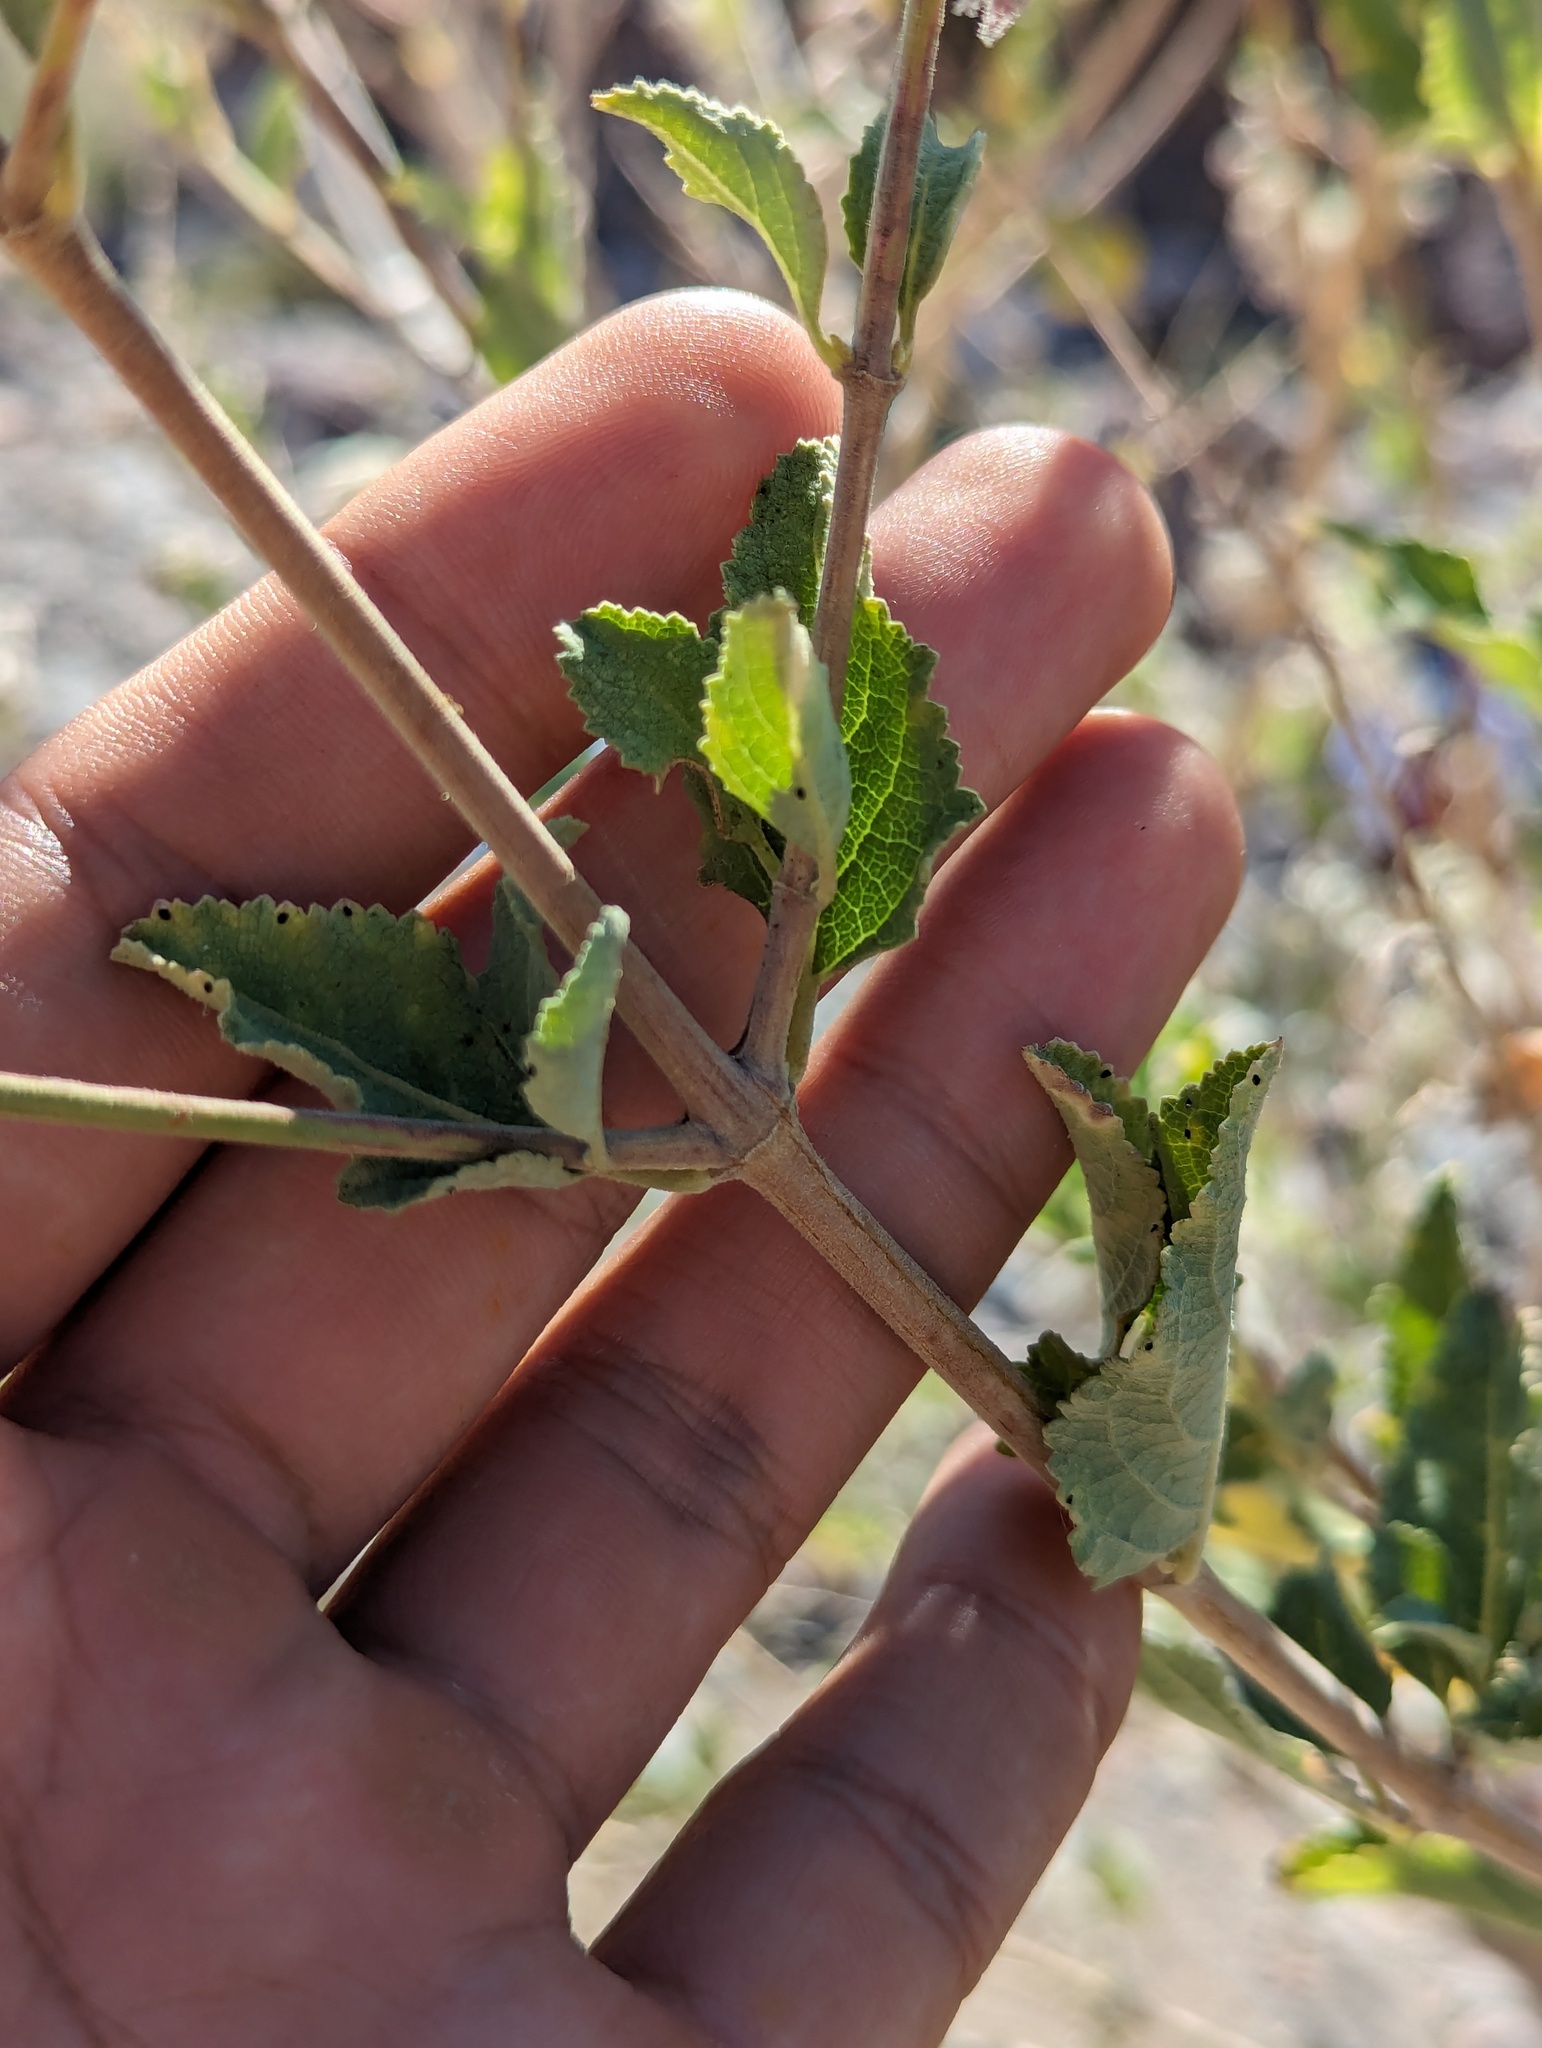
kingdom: Plantae
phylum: Tracheophyta
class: Magnoliopsida
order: Lamiales
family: Lamiaceae
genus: Condea
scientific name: Condea emoryi
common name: Chia
